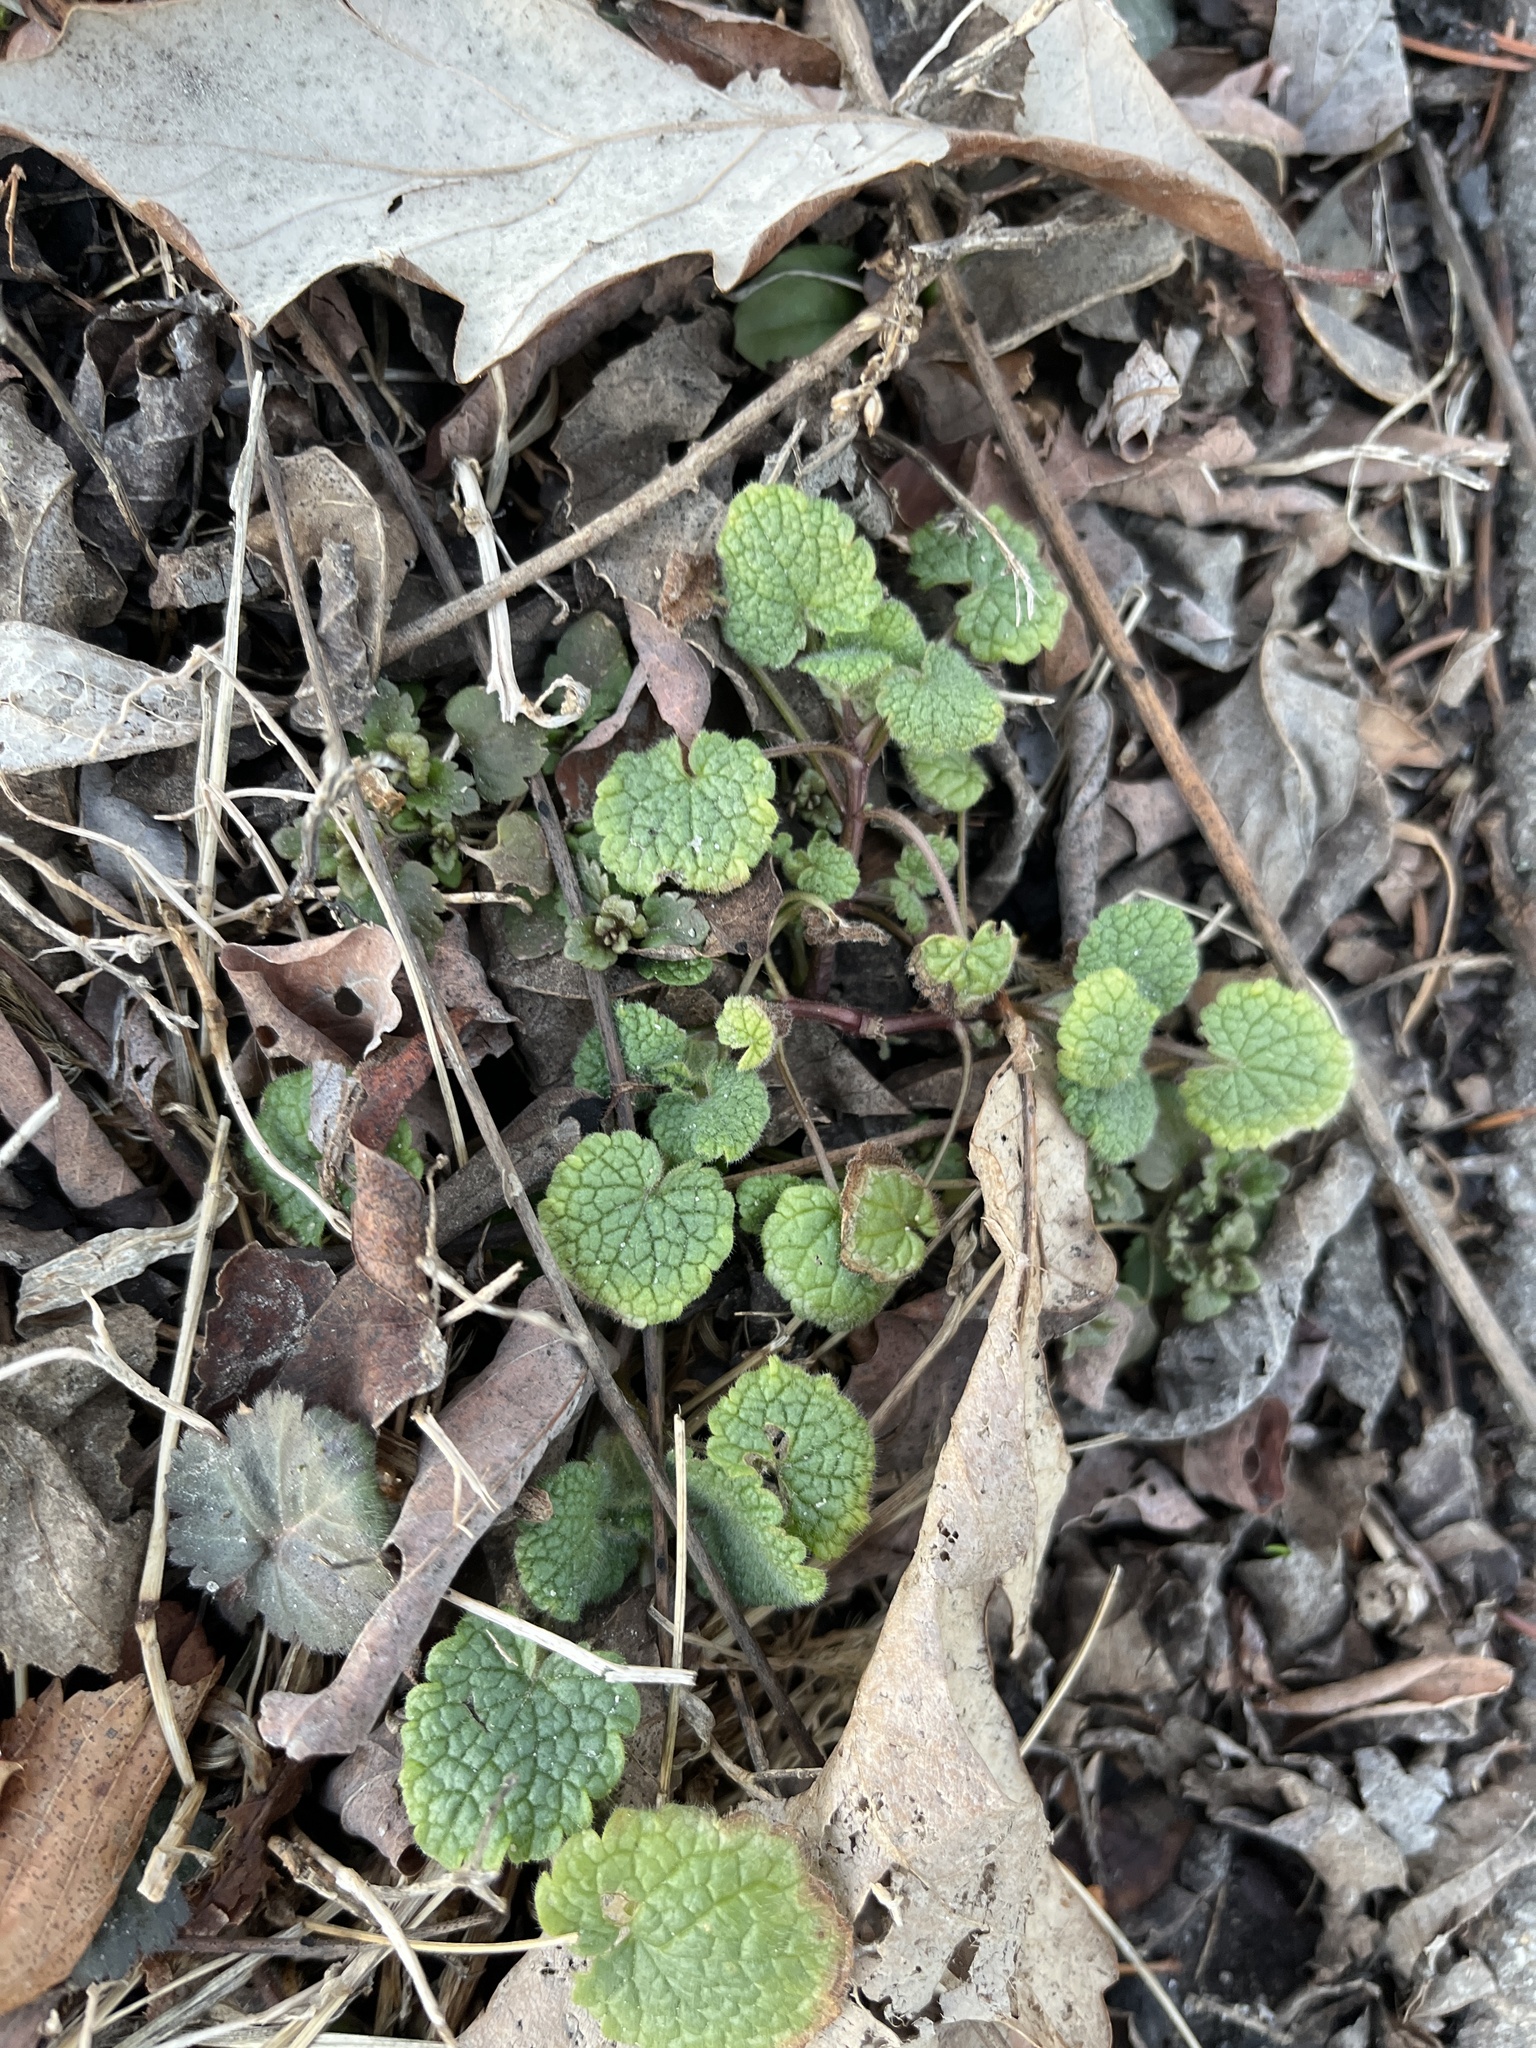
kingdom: Plantae
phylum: Tracheophyta
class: Magnoliopsida
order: Lamiales
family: Lamiaceae
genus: Lamium
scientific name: Lamium purpureum
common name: Red dead-nettle
